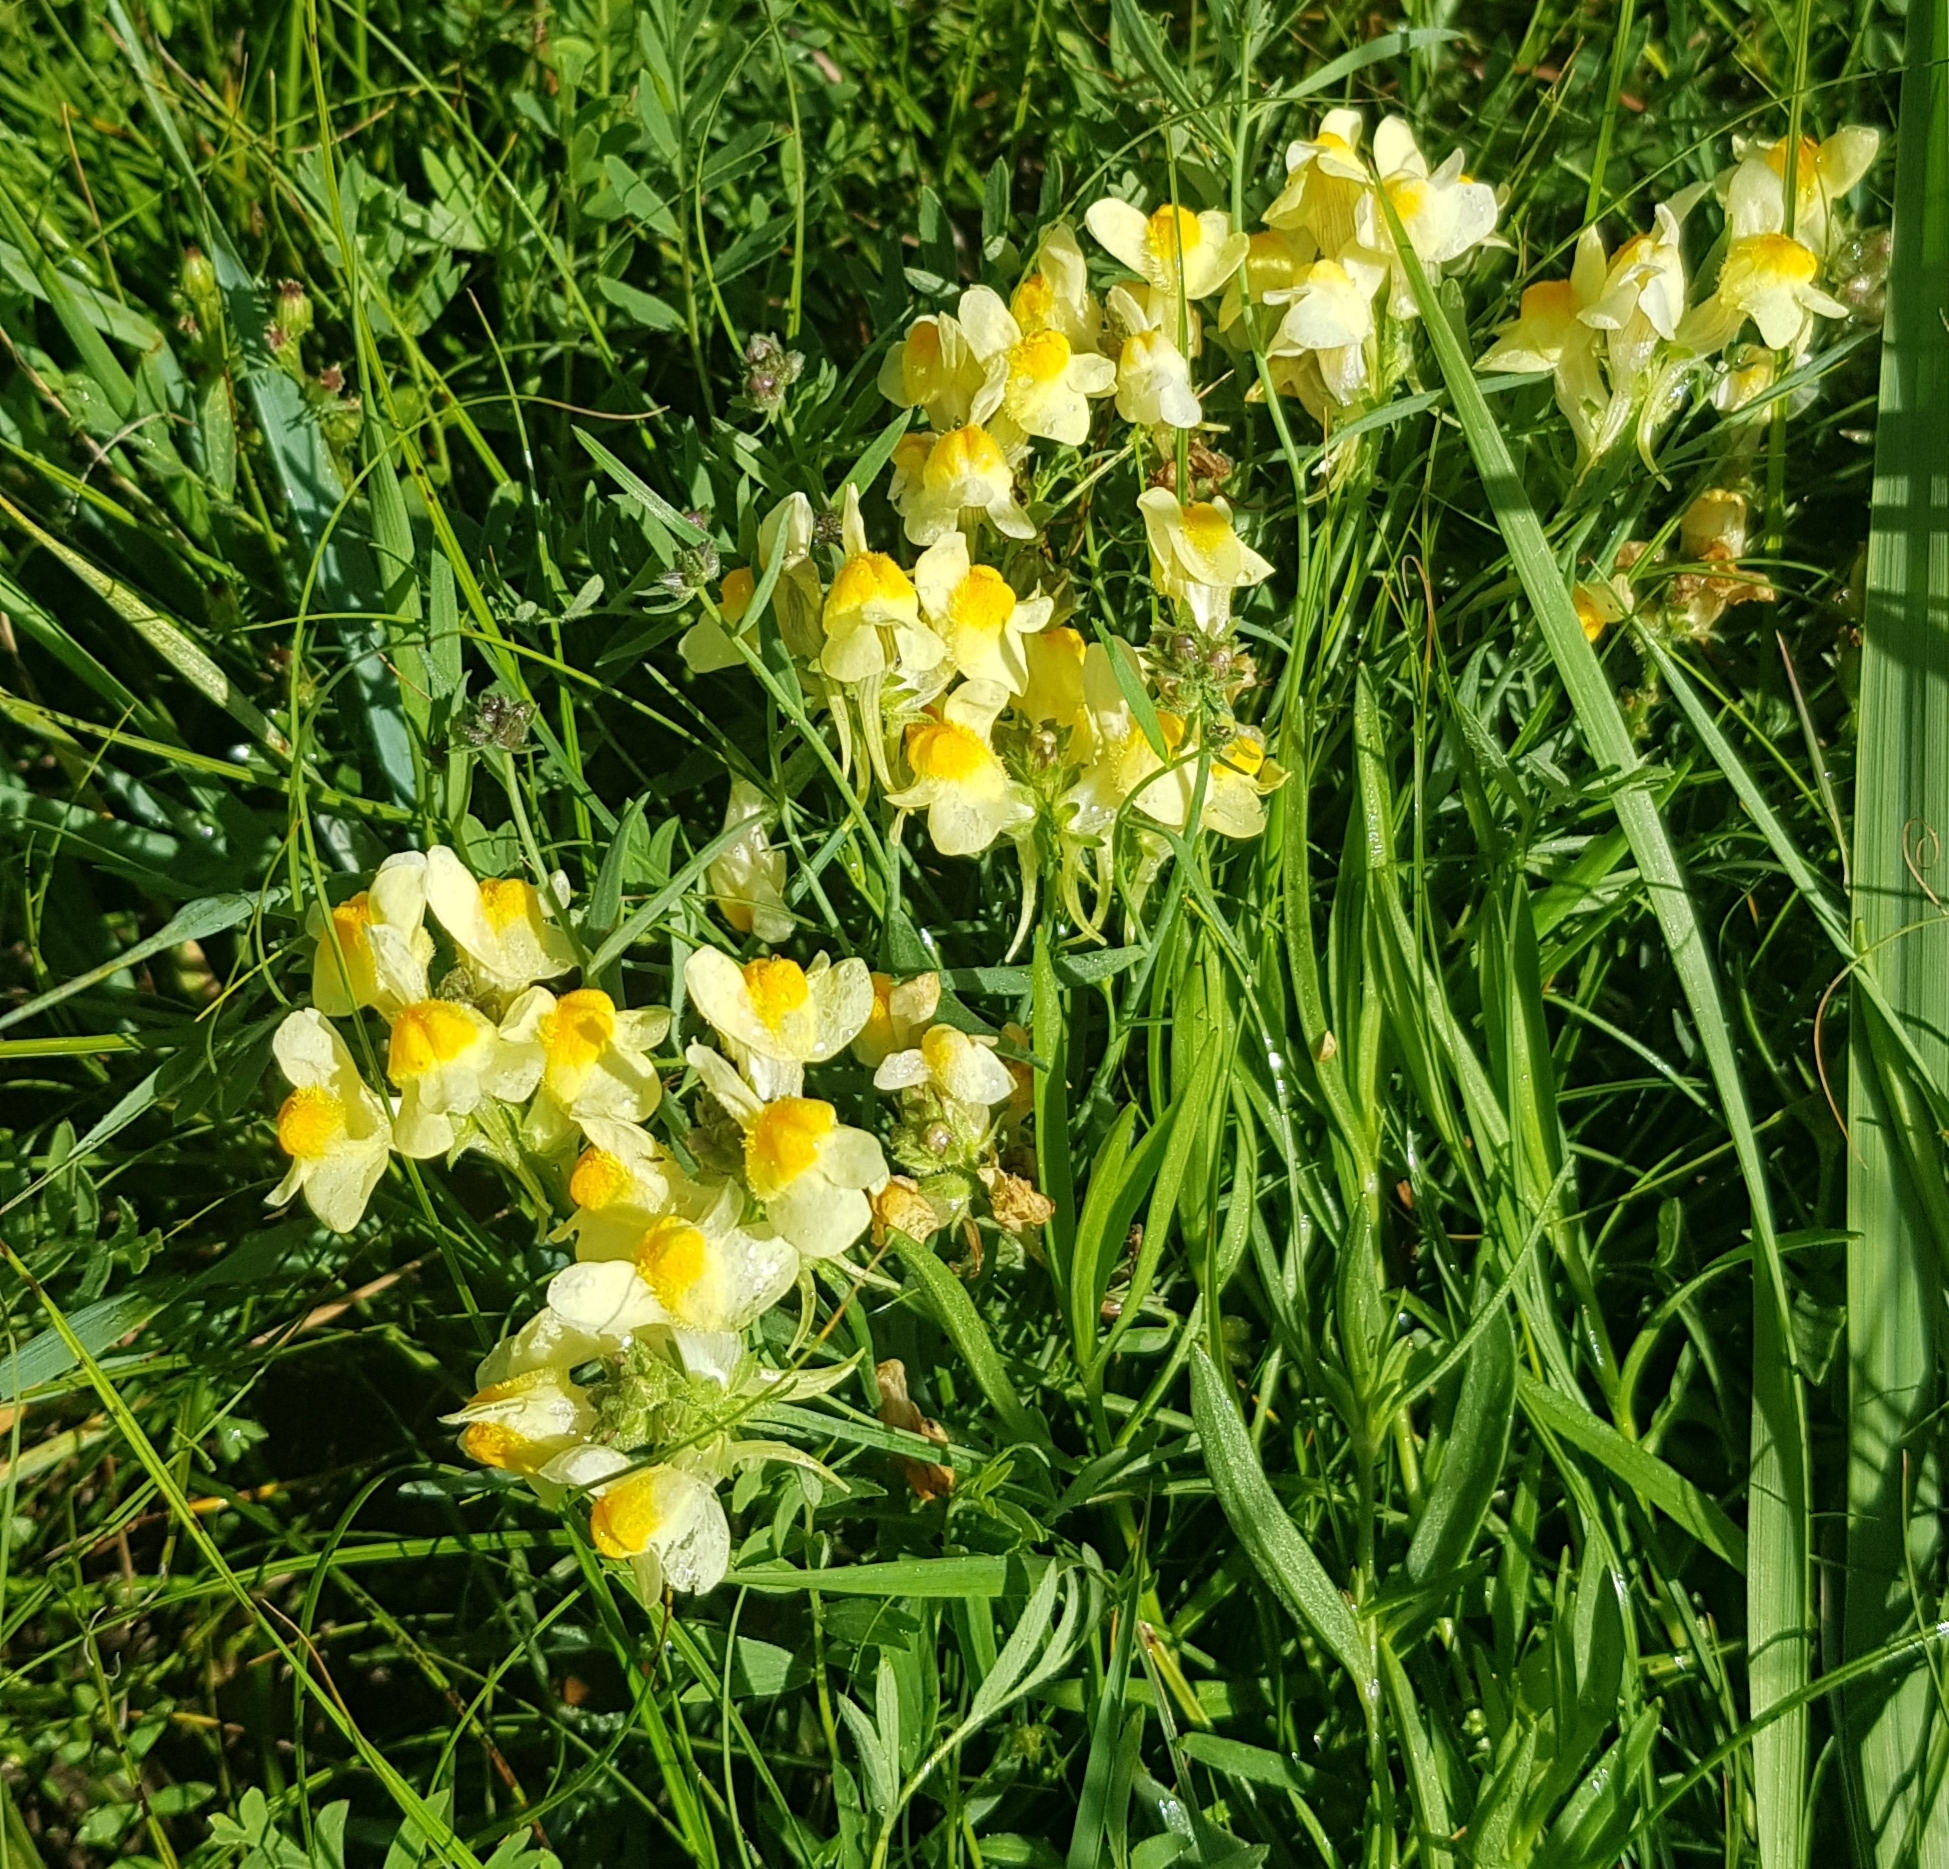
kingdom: Plantae
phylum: Tracheophyta
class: Magnoliopsida
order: Lamiales
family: Plantaginaceae
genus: Linaria
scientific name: Linaria buriatica
